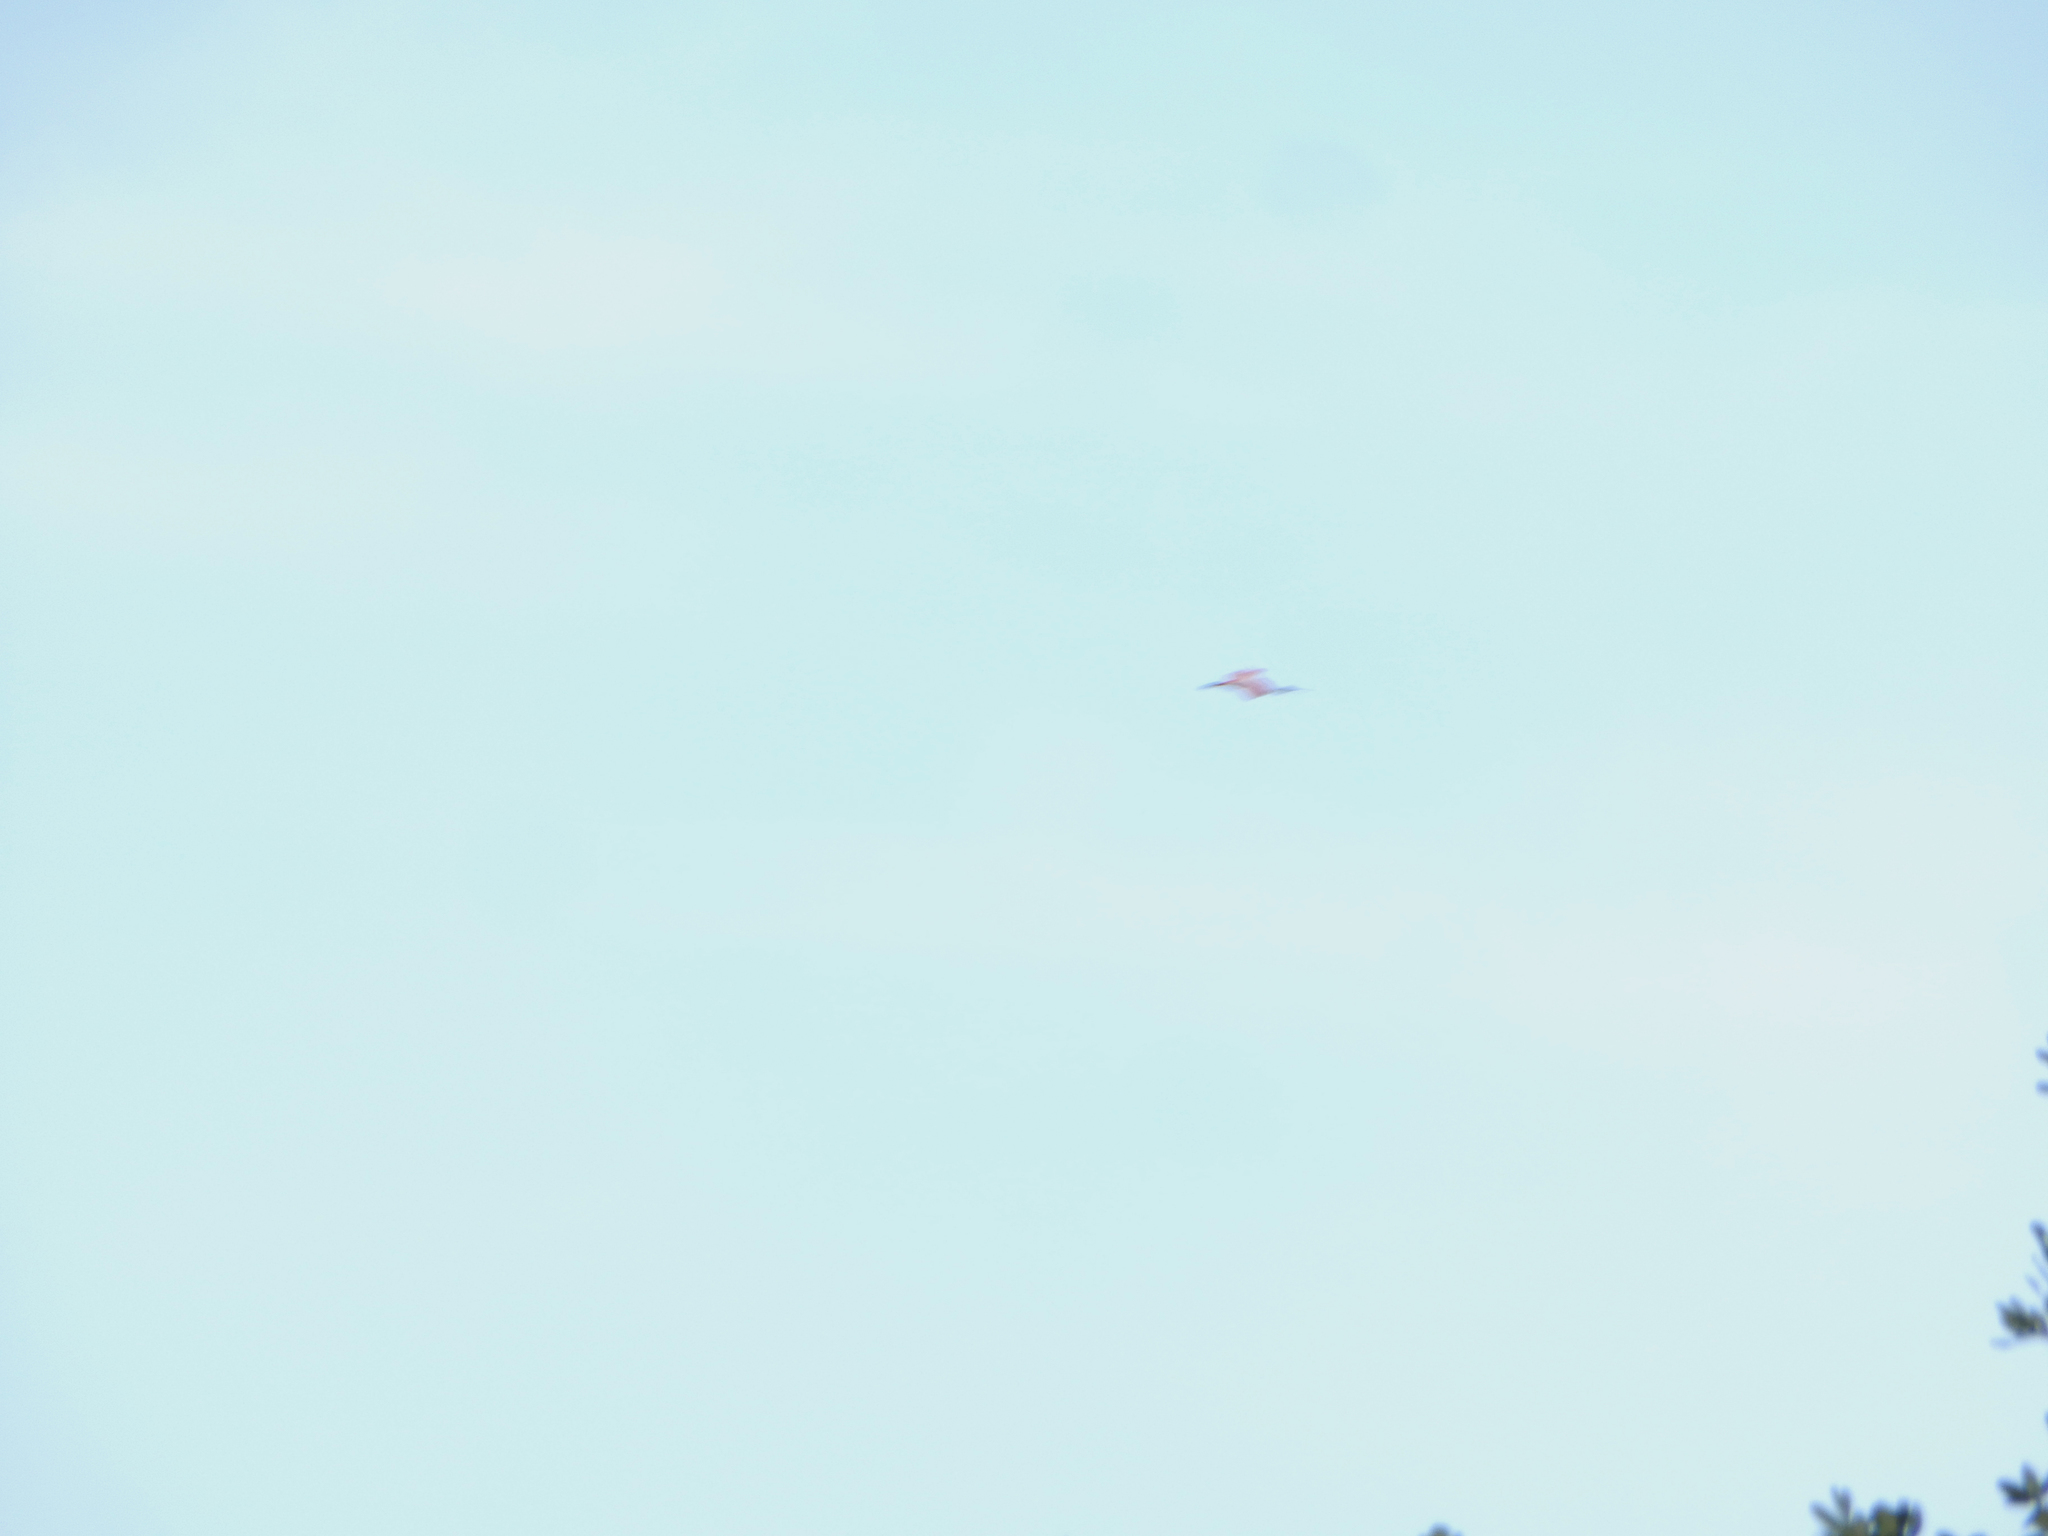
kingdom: Animalia
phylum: Chordata
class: Aves
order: Pelecaniformes
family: Threskiornithidae
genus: Platalea
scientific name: Platalea ajaja
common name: Roseate spoonbill
